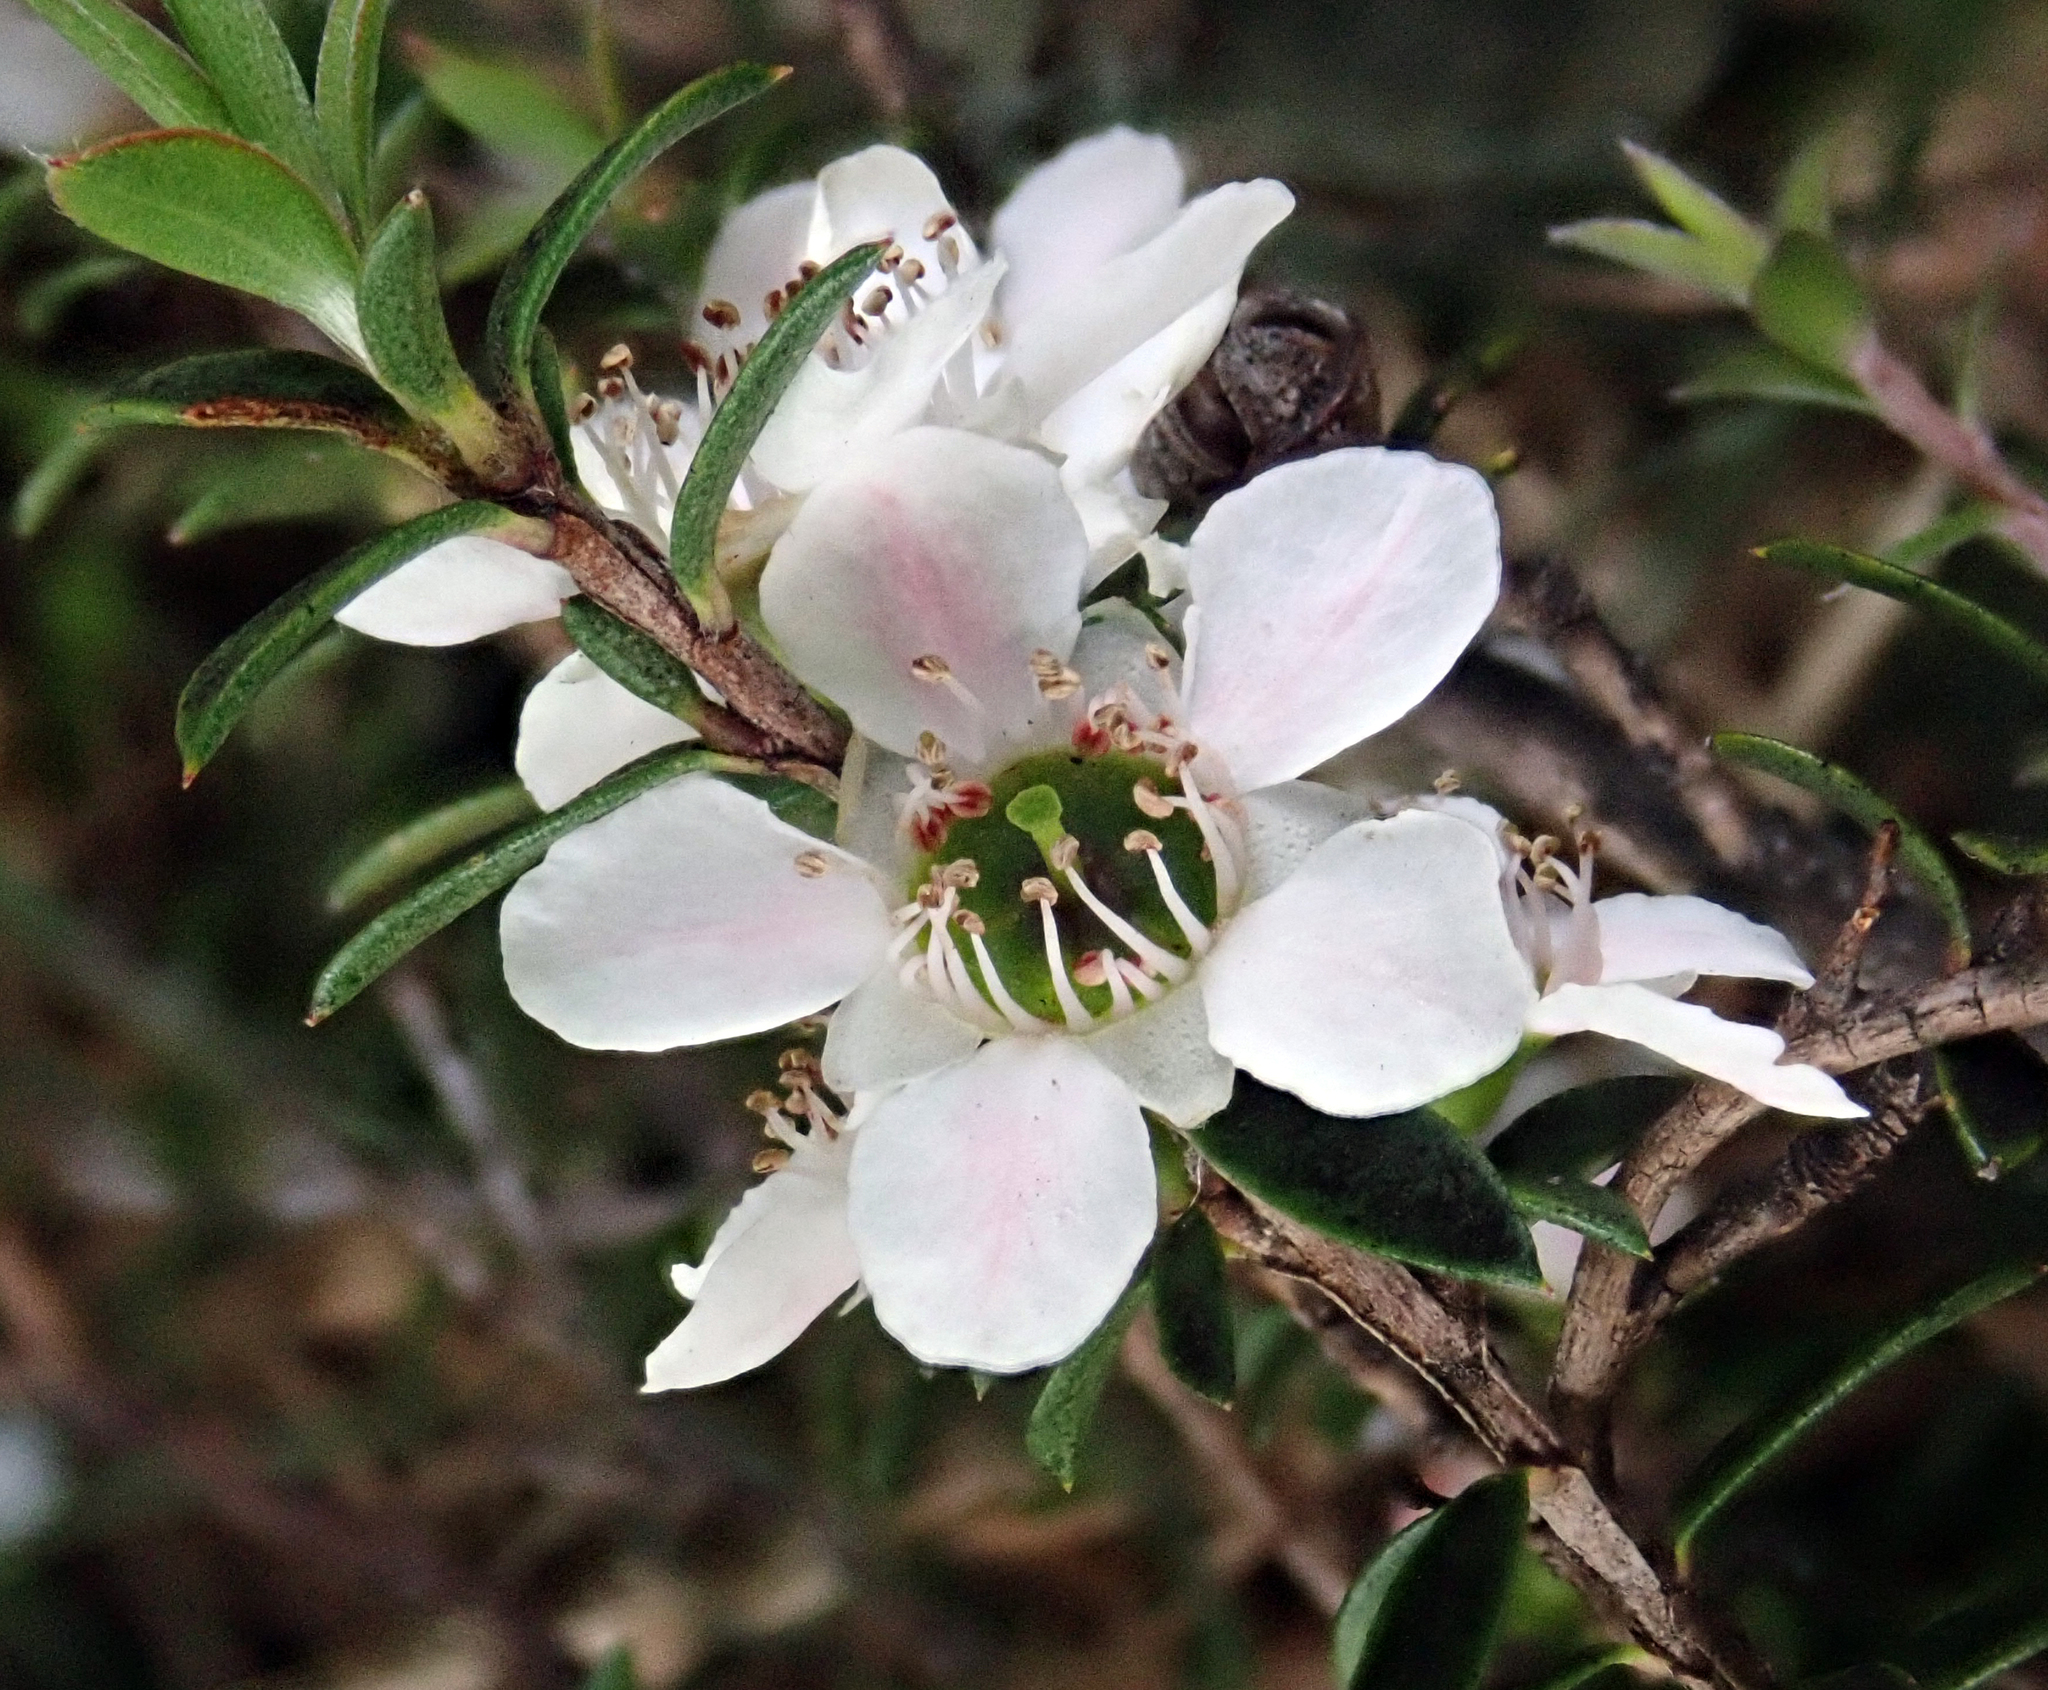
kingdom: Plantae
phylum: Tracheophyta
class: Magnoliopsida
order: Myrtales
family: Myrtaceae
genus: Leptospermum
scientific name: Leptospermum scoparium
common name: Broom tea-tree
